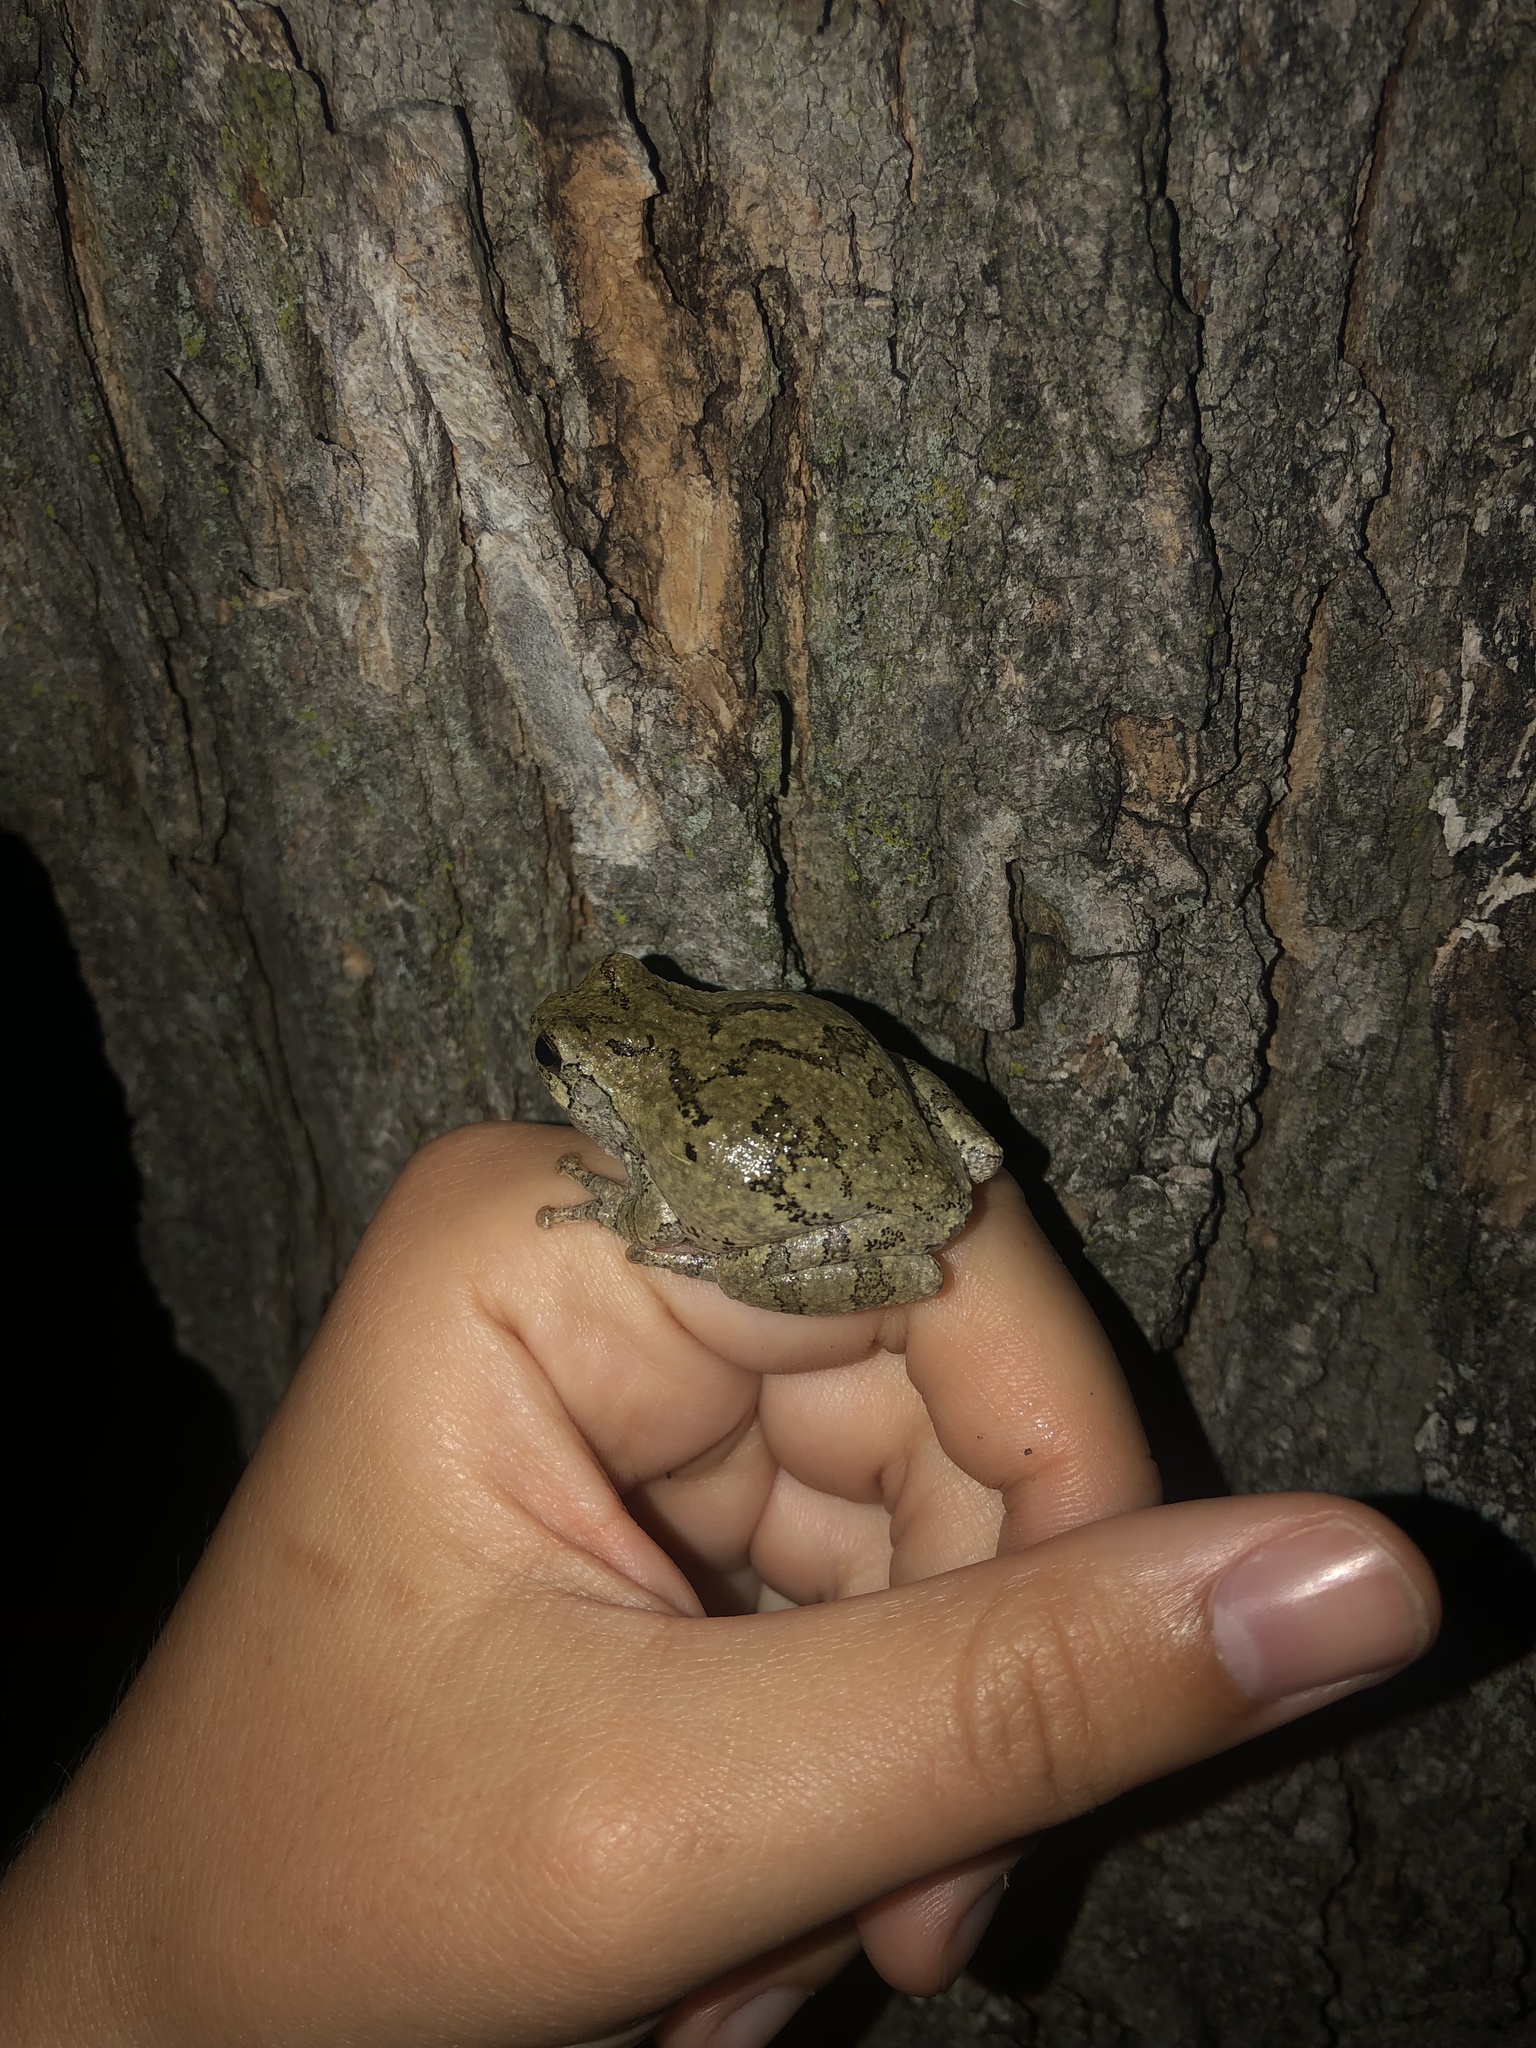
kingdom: Animalia
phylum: Chordata
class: Amphibia
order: Anura
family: Hylidae
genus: Dryophytes
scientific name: Dryophytes versicolor
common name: Gray treefrog
